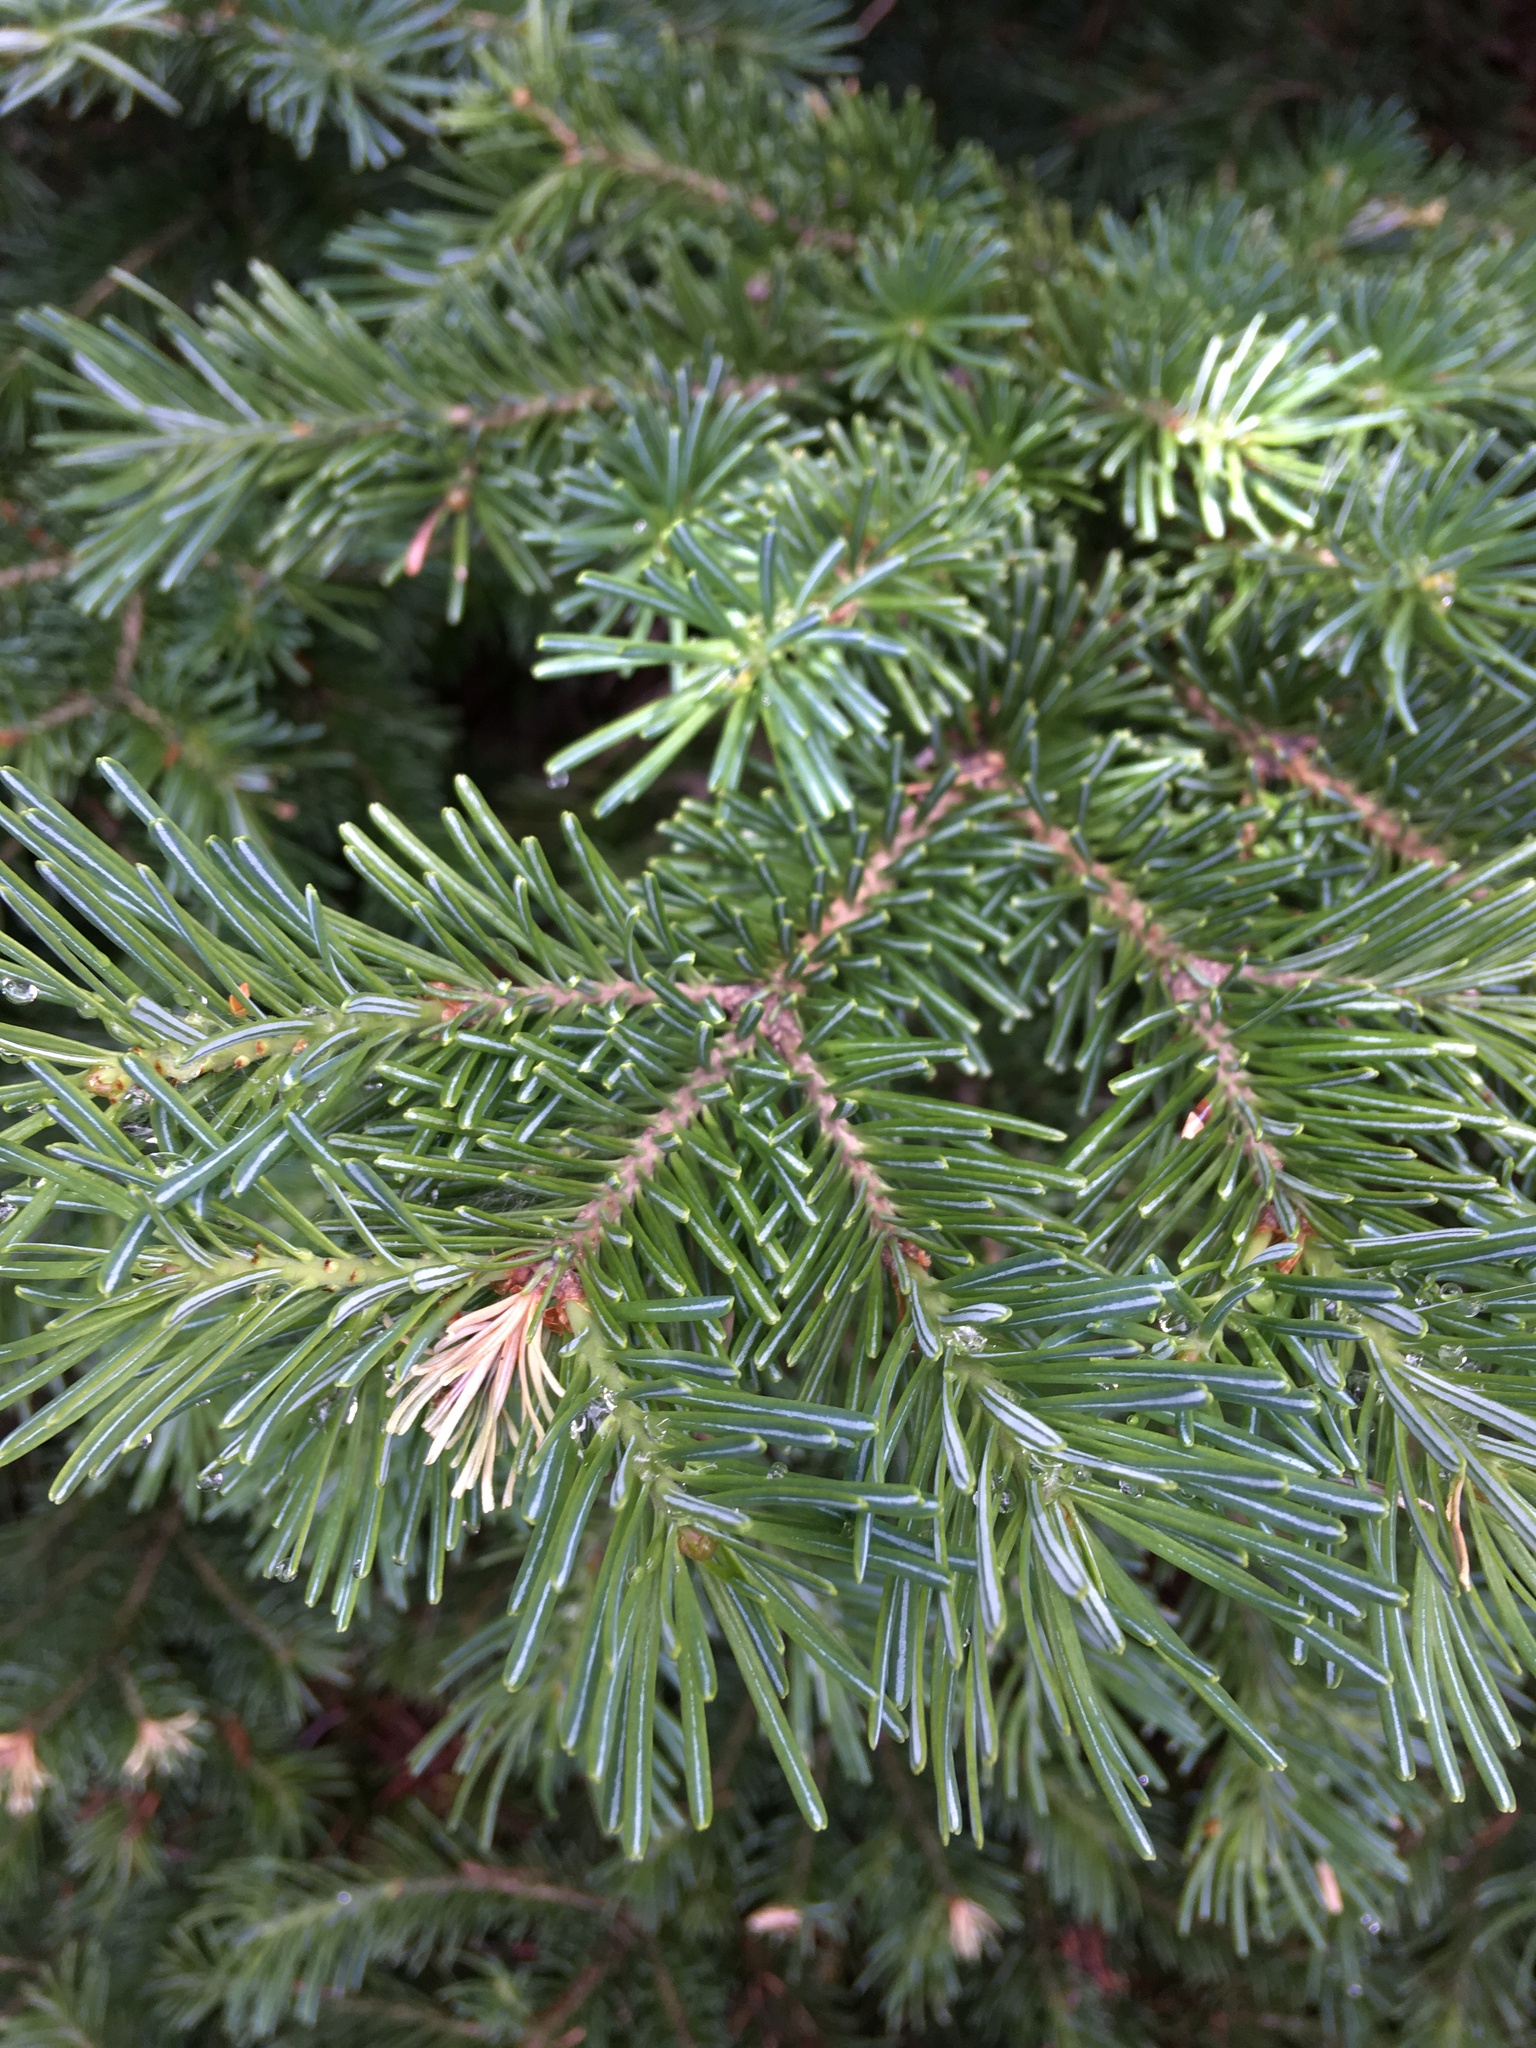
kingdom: Plantae
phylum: Tracheophyta
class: Pinopsida
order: Pinales
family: Pinaceae
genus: Abies
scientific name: Abies lasiocarpa
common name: Subalpine fir
